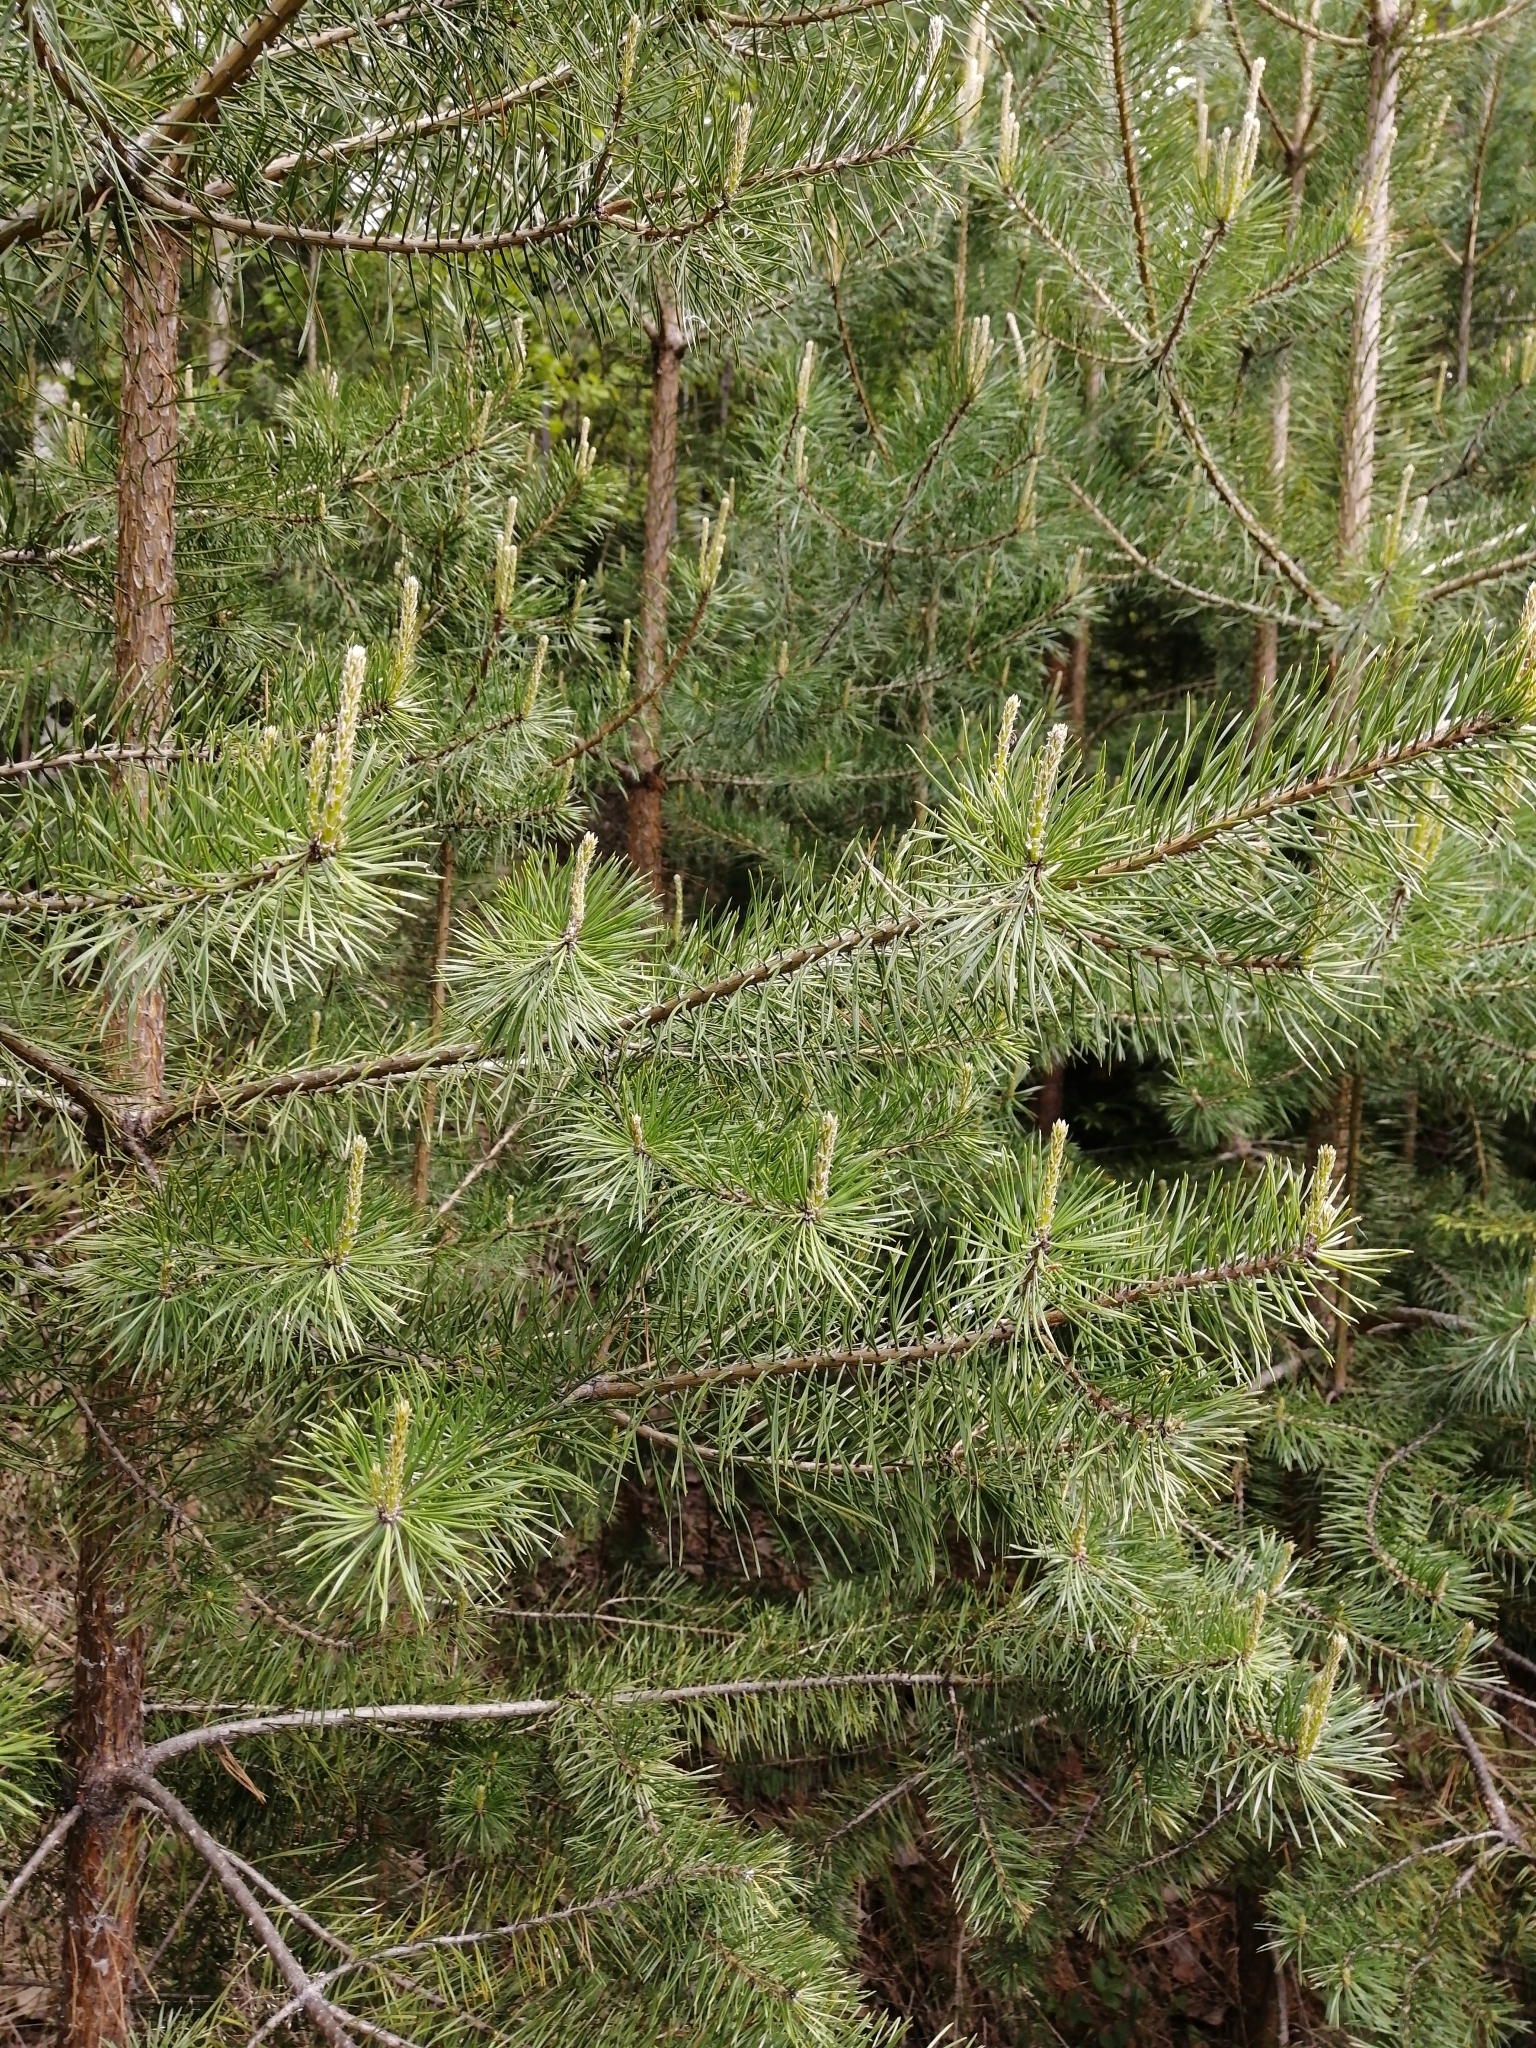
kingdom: Plantae
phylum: Tracheophyta
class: Pinopsida
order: Pinales
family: Pinaceae
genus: Pinus
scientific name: Pinus sylvestris
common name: Scots pine
